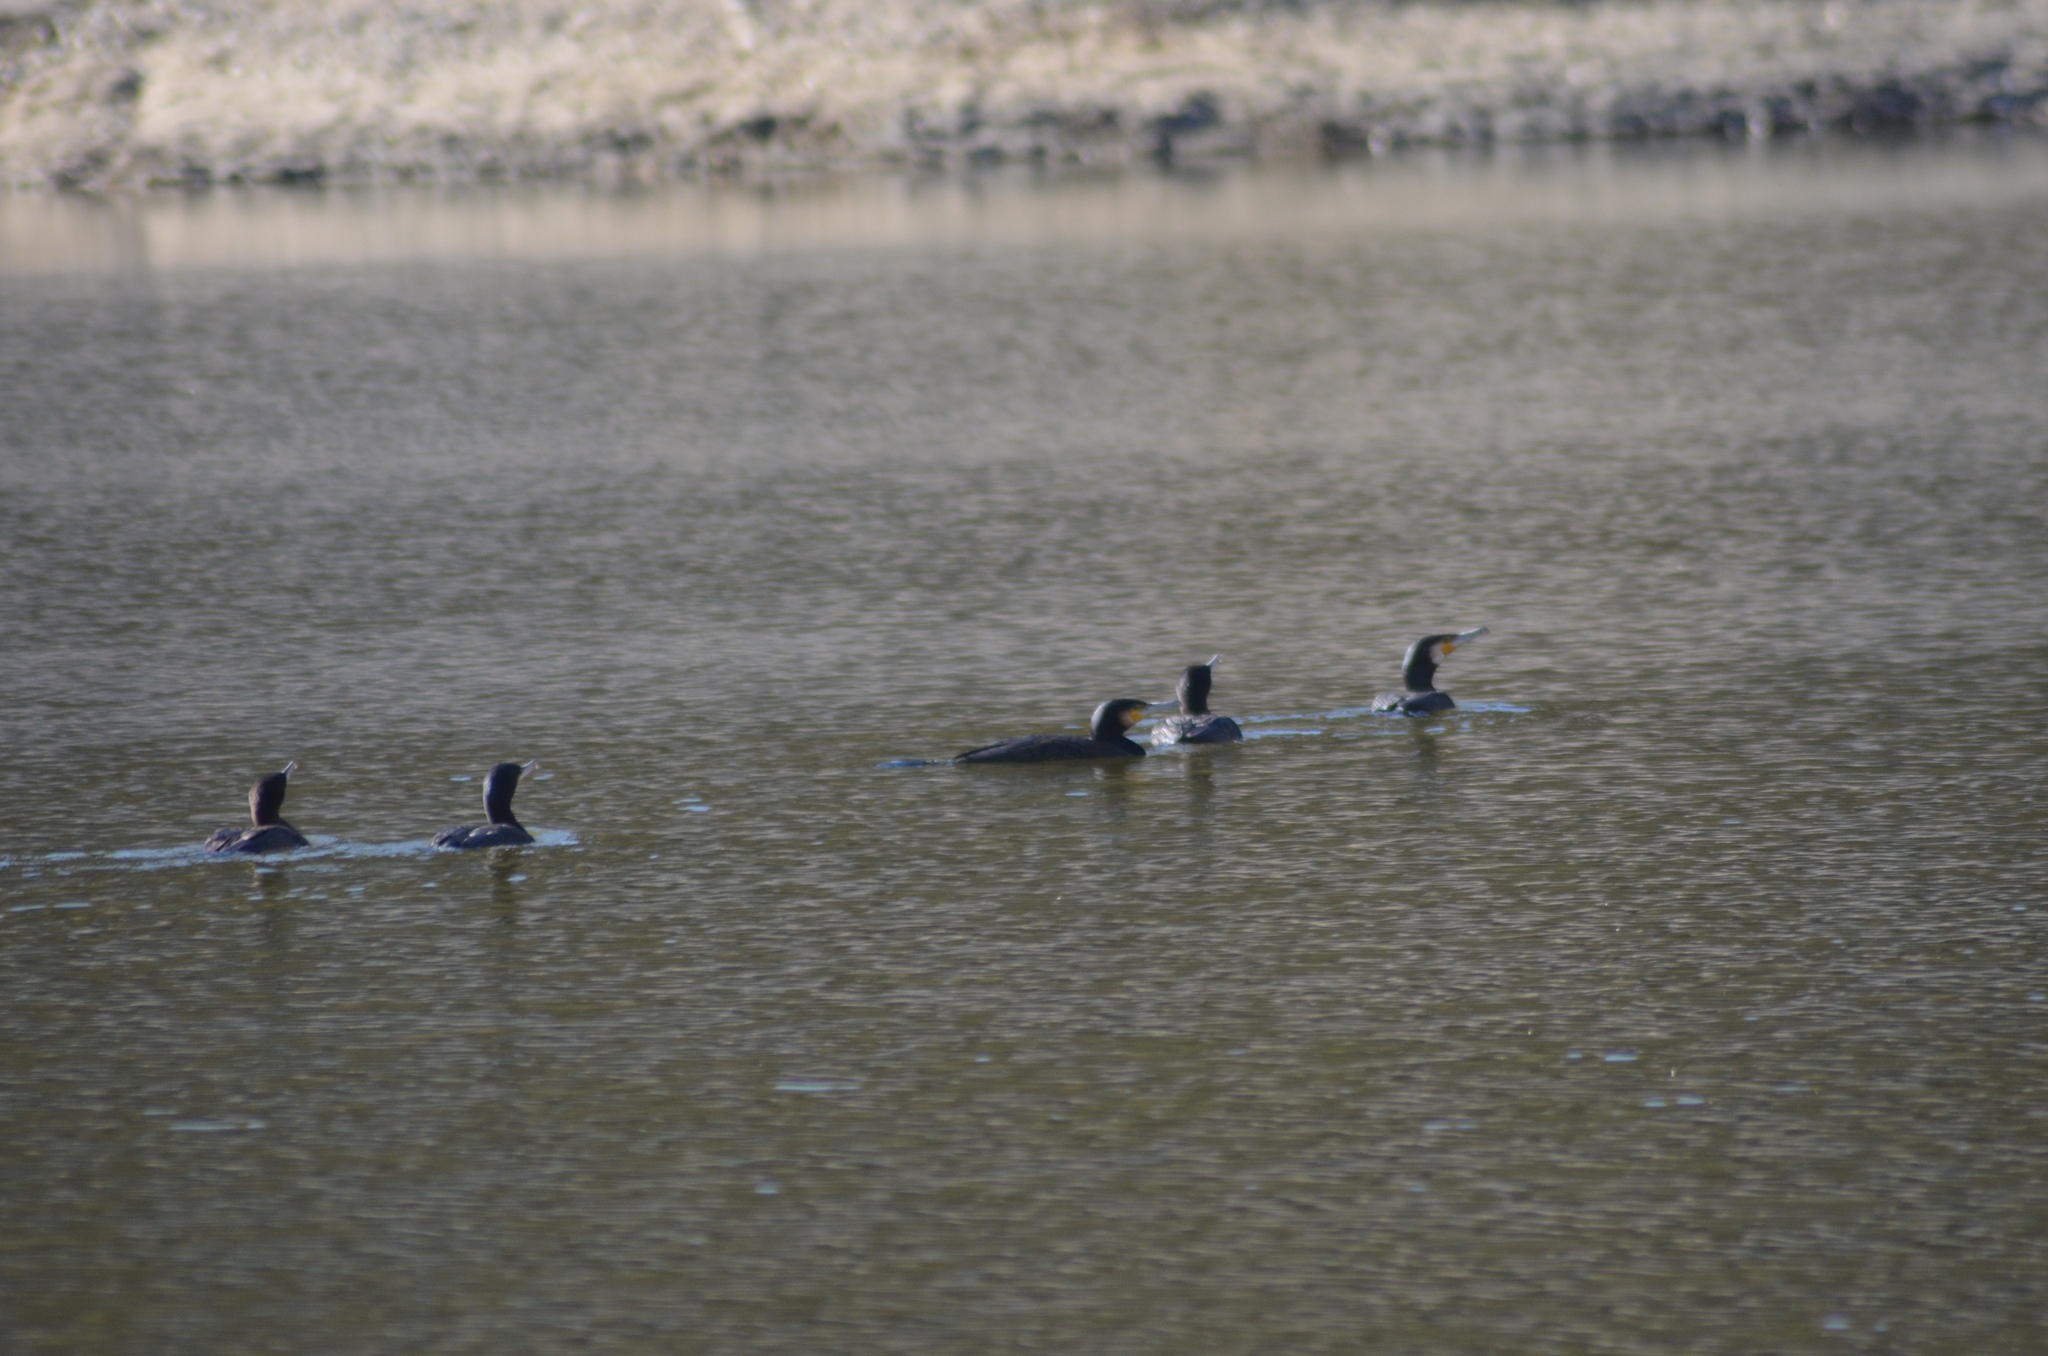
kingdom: Animalia
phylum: Chordata
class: Aves
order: Suliformes
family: Phalacrocoracidae
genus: Phalacrocorax
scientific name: Phalacrocorax carbo
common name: Great cormorant
